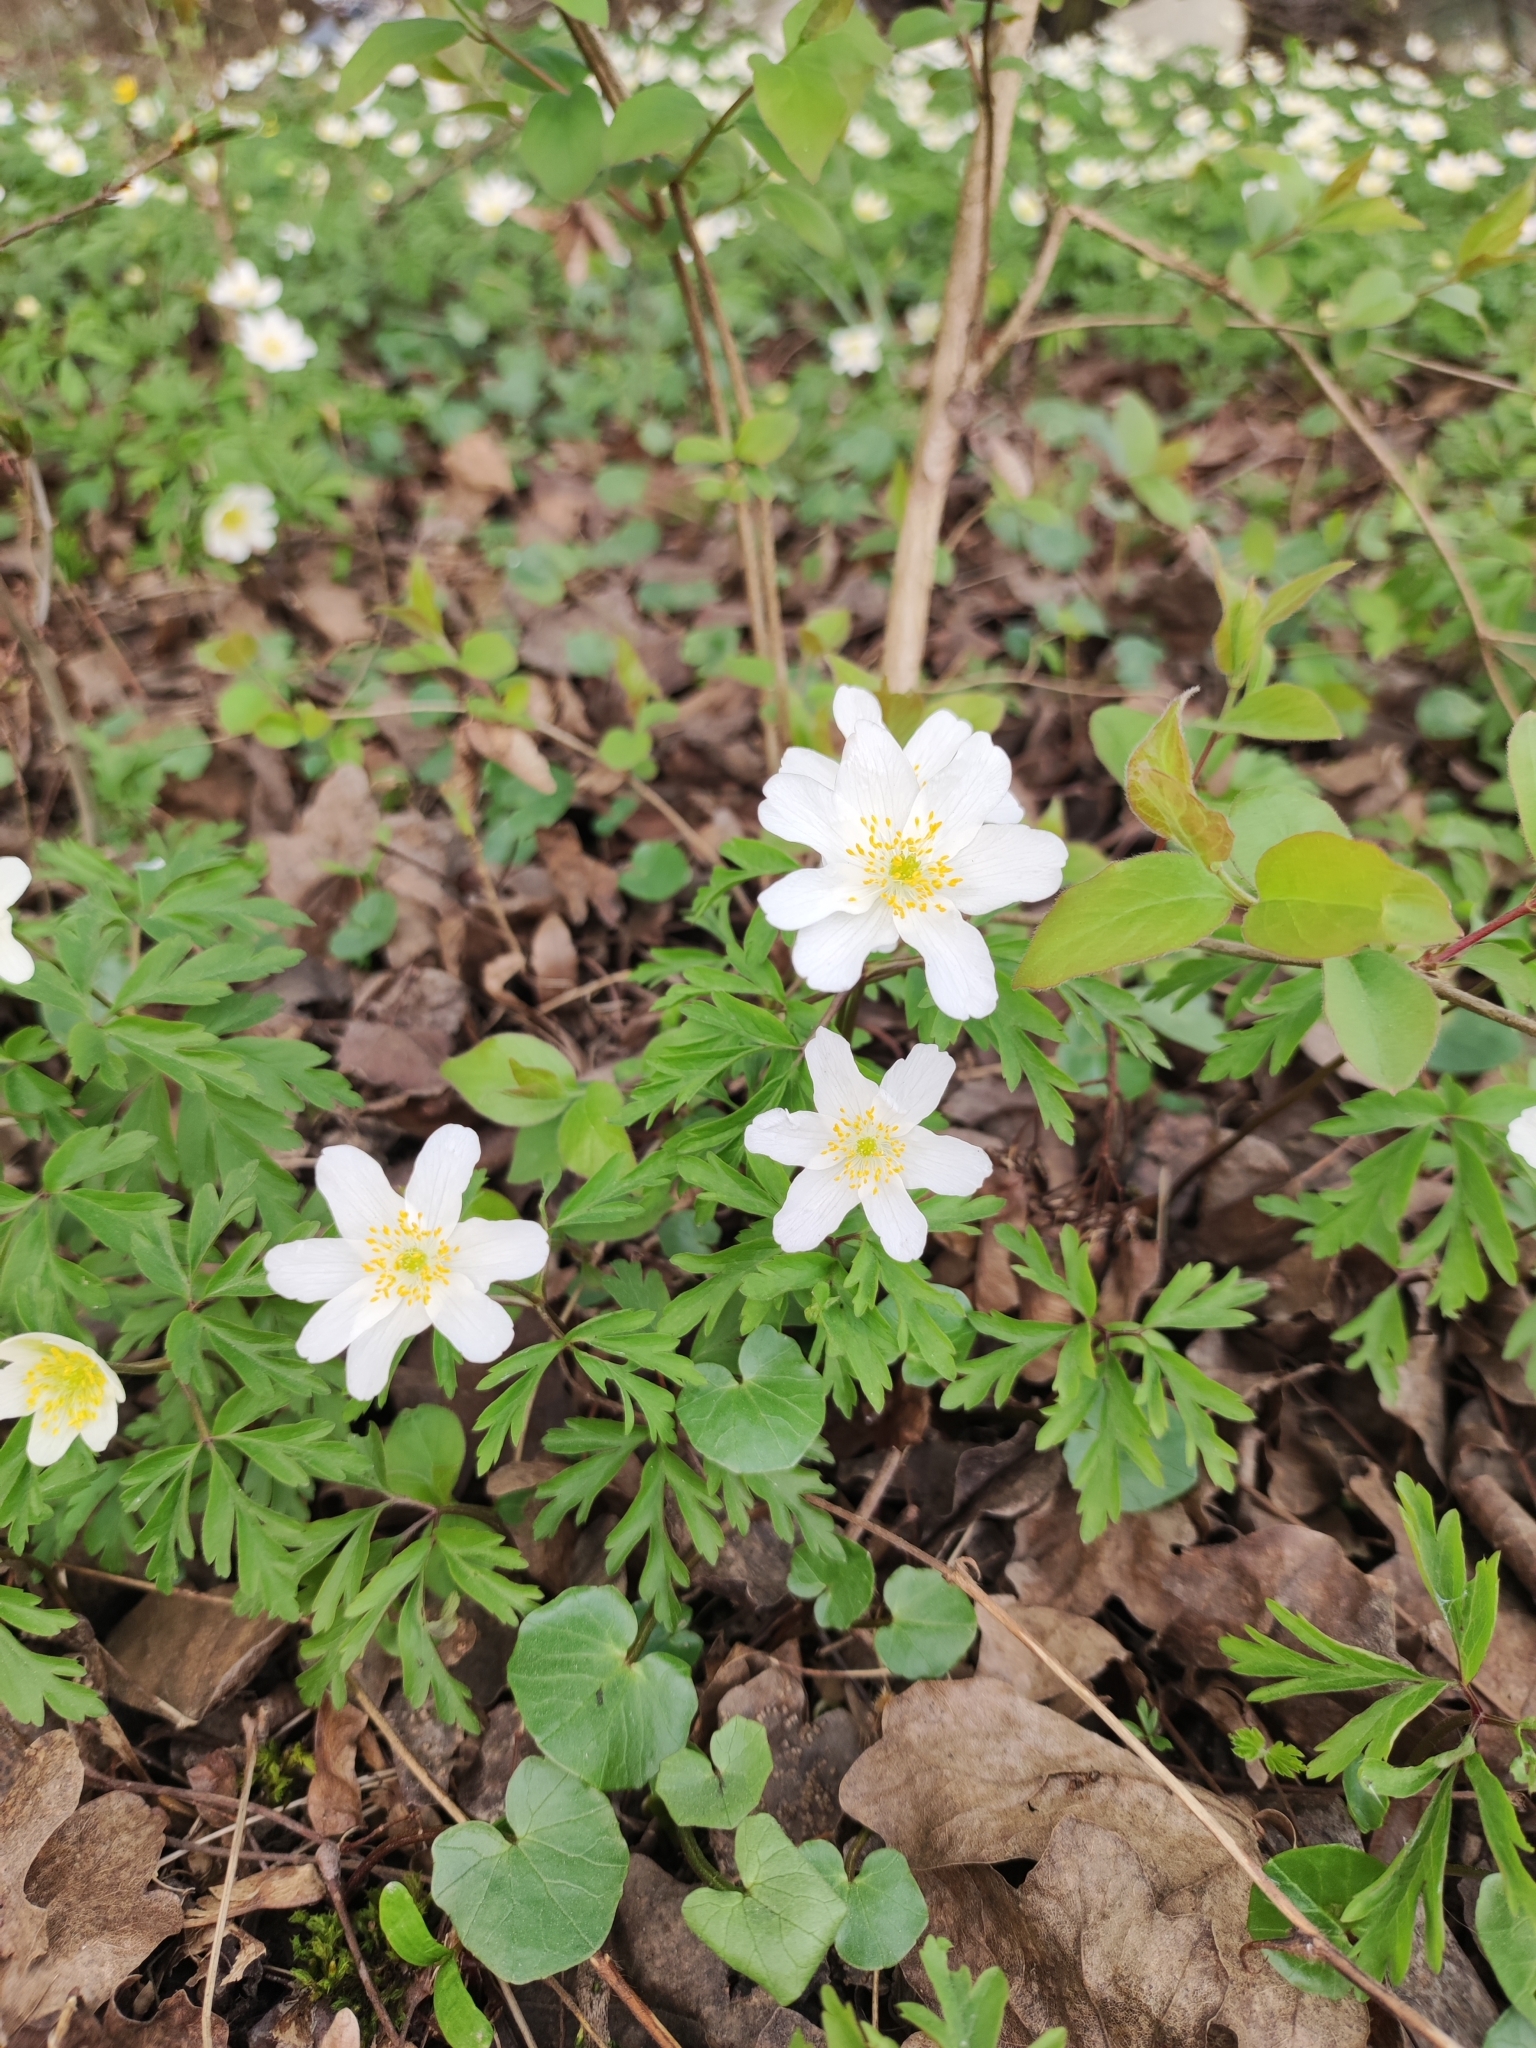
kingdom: Plantae
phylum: Tracheophyta
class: Magnoliopsida
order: Ranunculales
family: Ranunculaceae
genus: Anemone
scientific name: Anemone nemorosa
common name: Wood anemone
